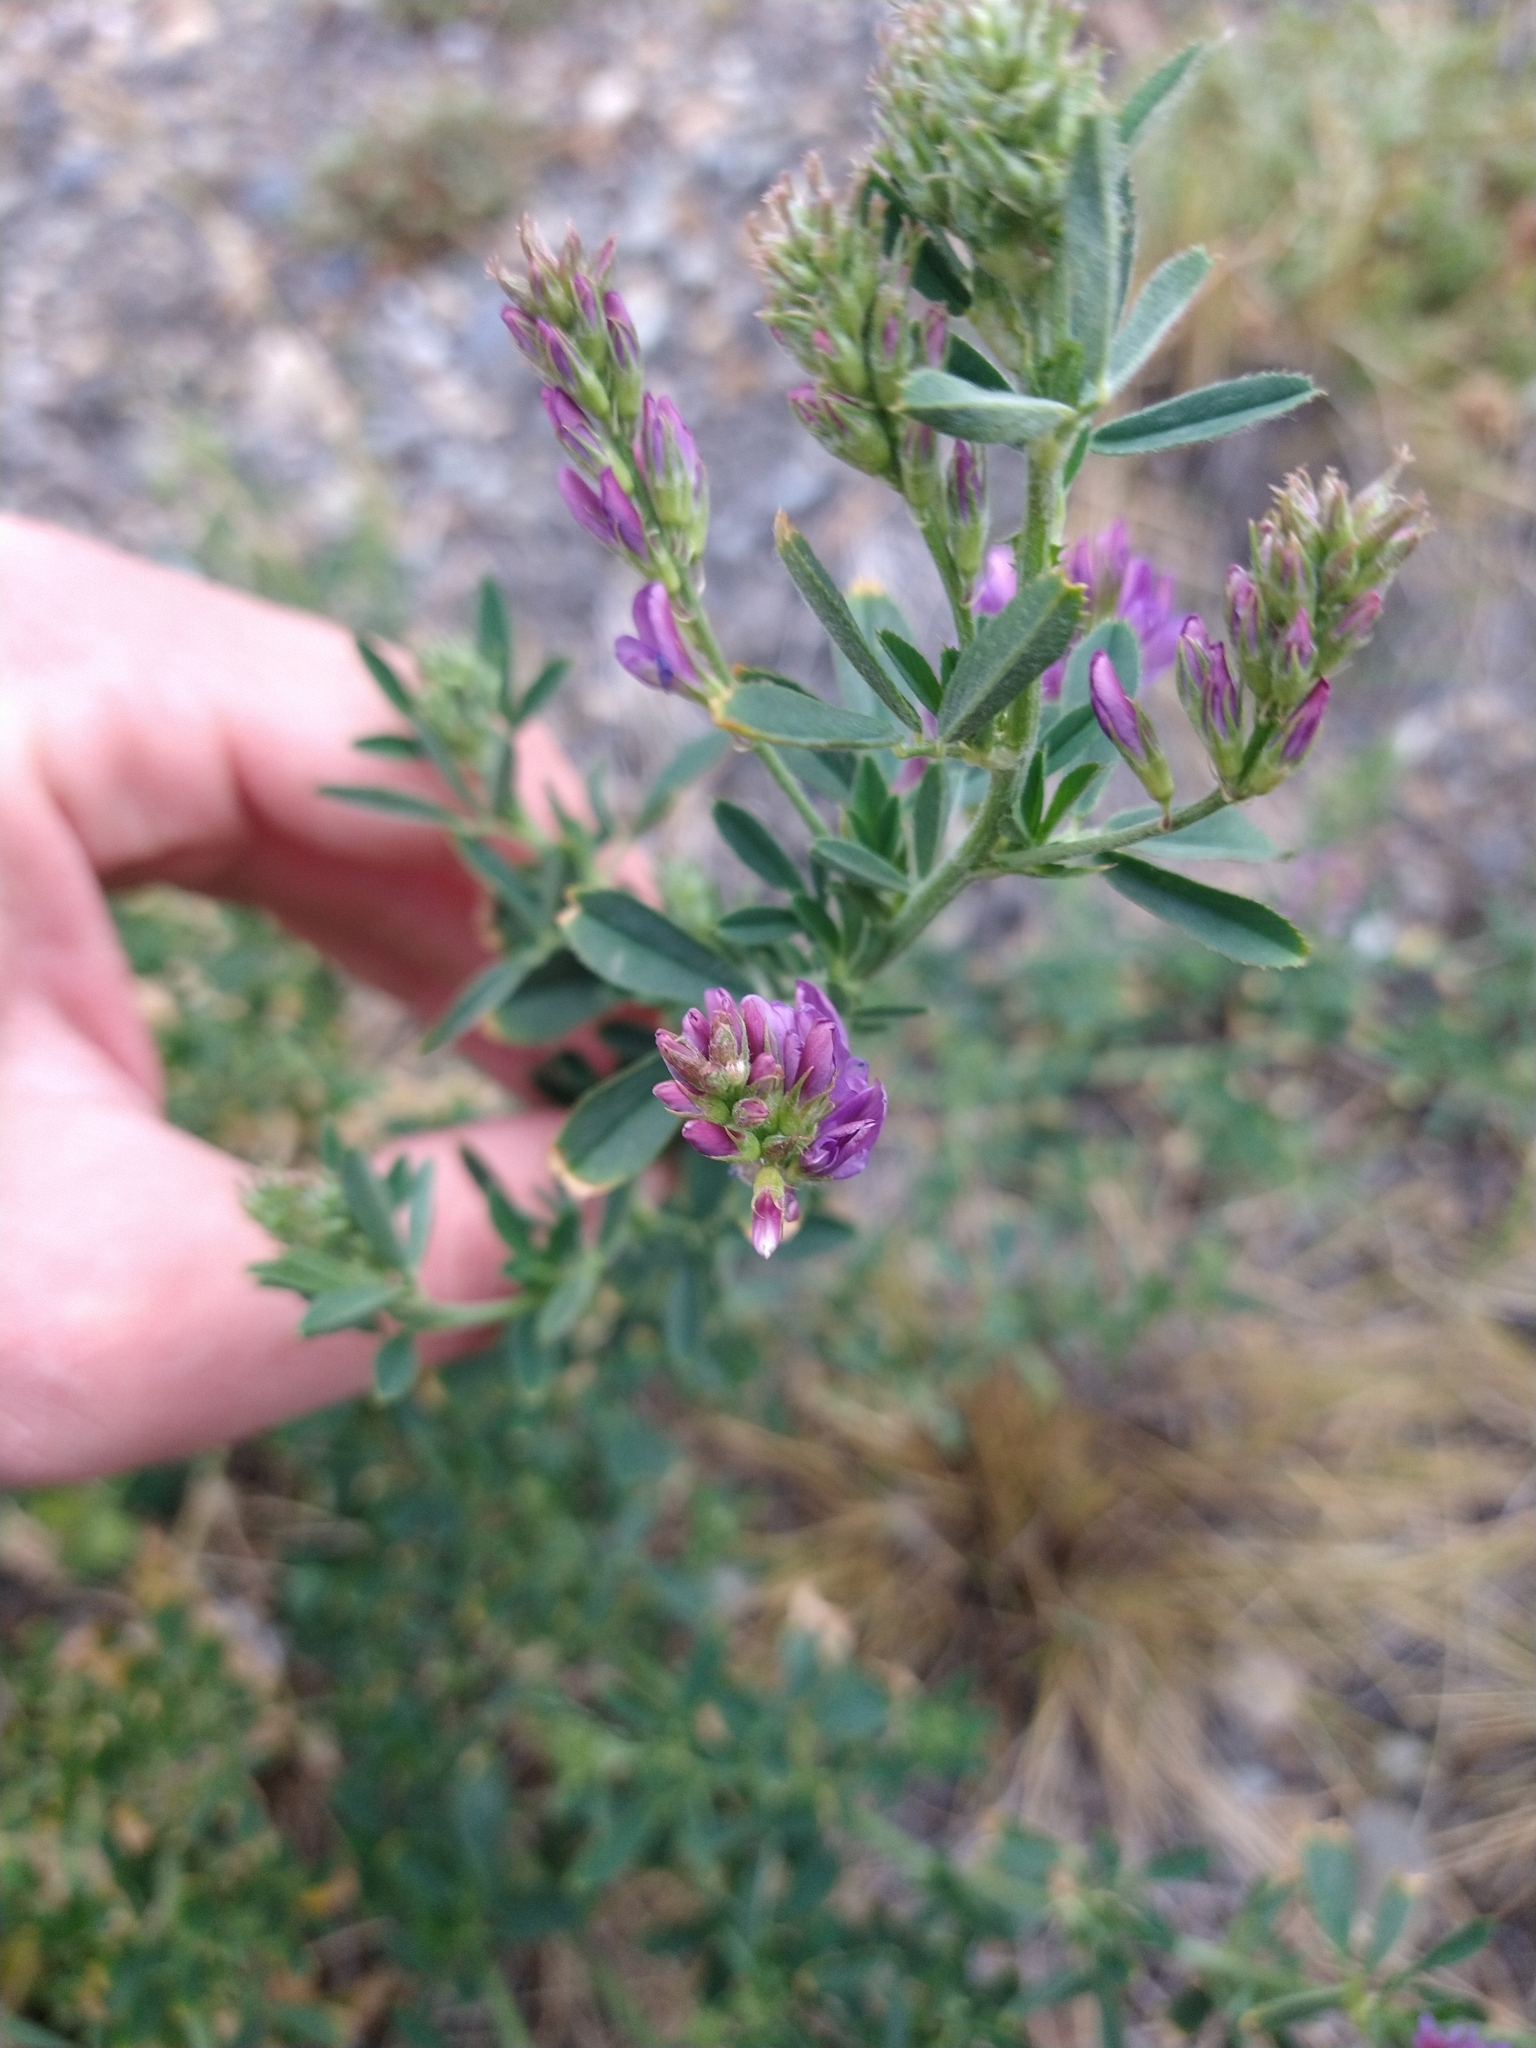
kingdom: Plantae
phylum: Tracheophyta
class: Magnoliopsida
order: Fabales
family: Fabaceae
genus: Medicago
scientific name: Medicago sativa
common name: Alfalfa
